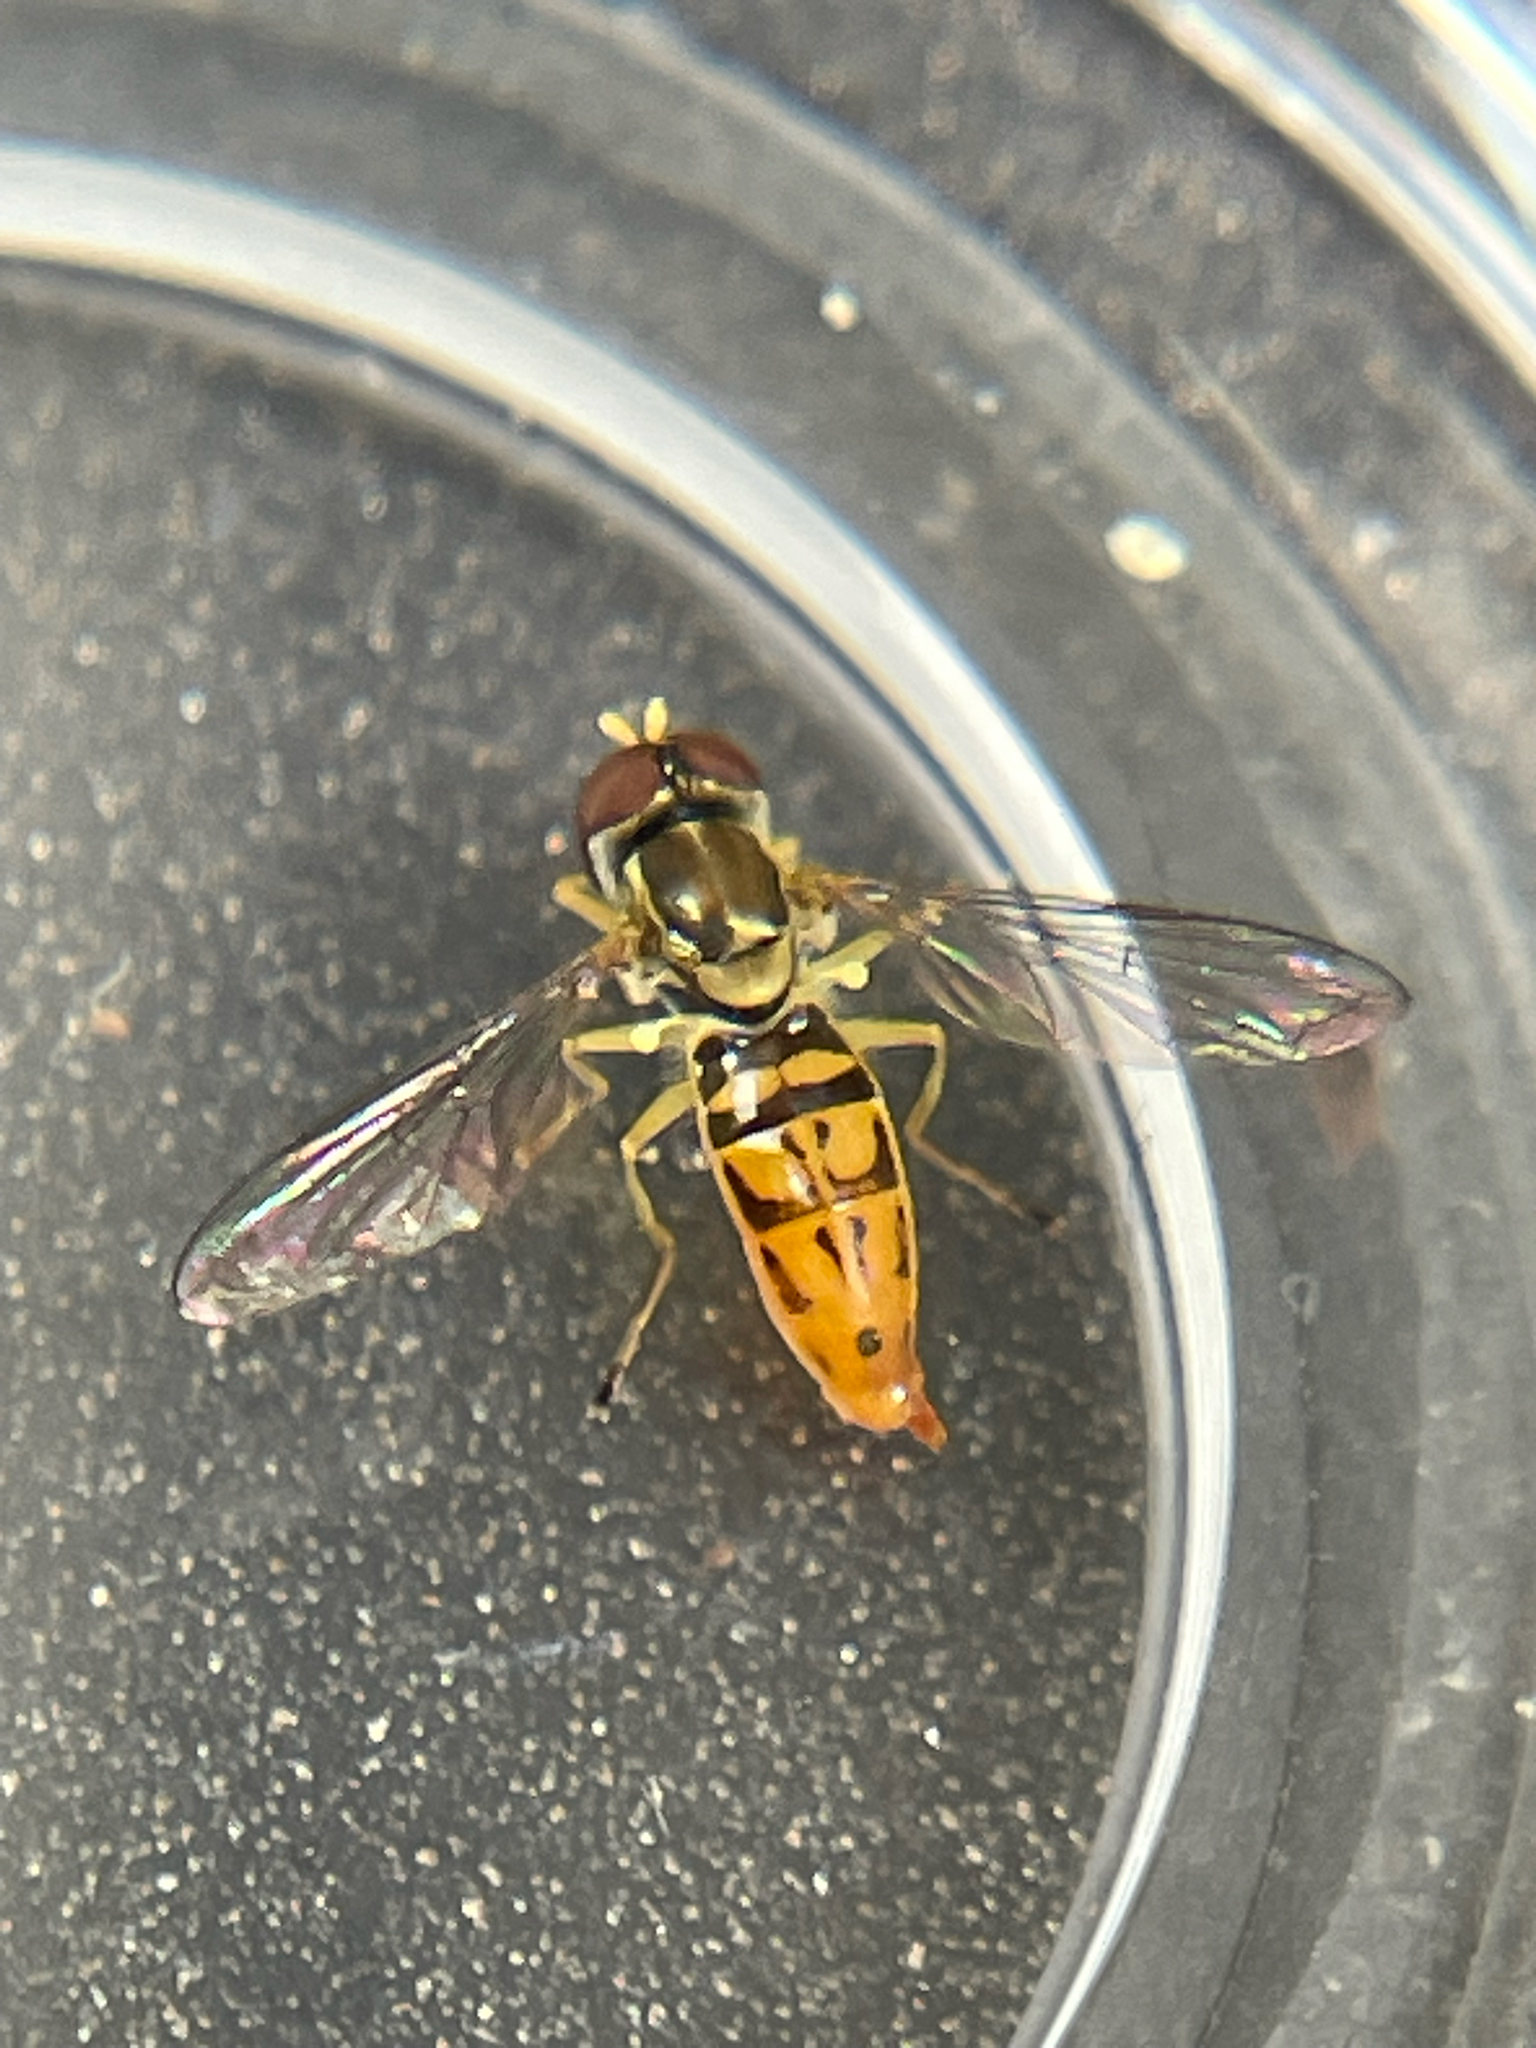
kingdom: Animalia
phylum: Arthropoda
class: Insecta
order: Diptera
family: Syrphidae
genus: Toxomerus
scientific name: Toxomerus marginatus
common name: Syrphid fly
